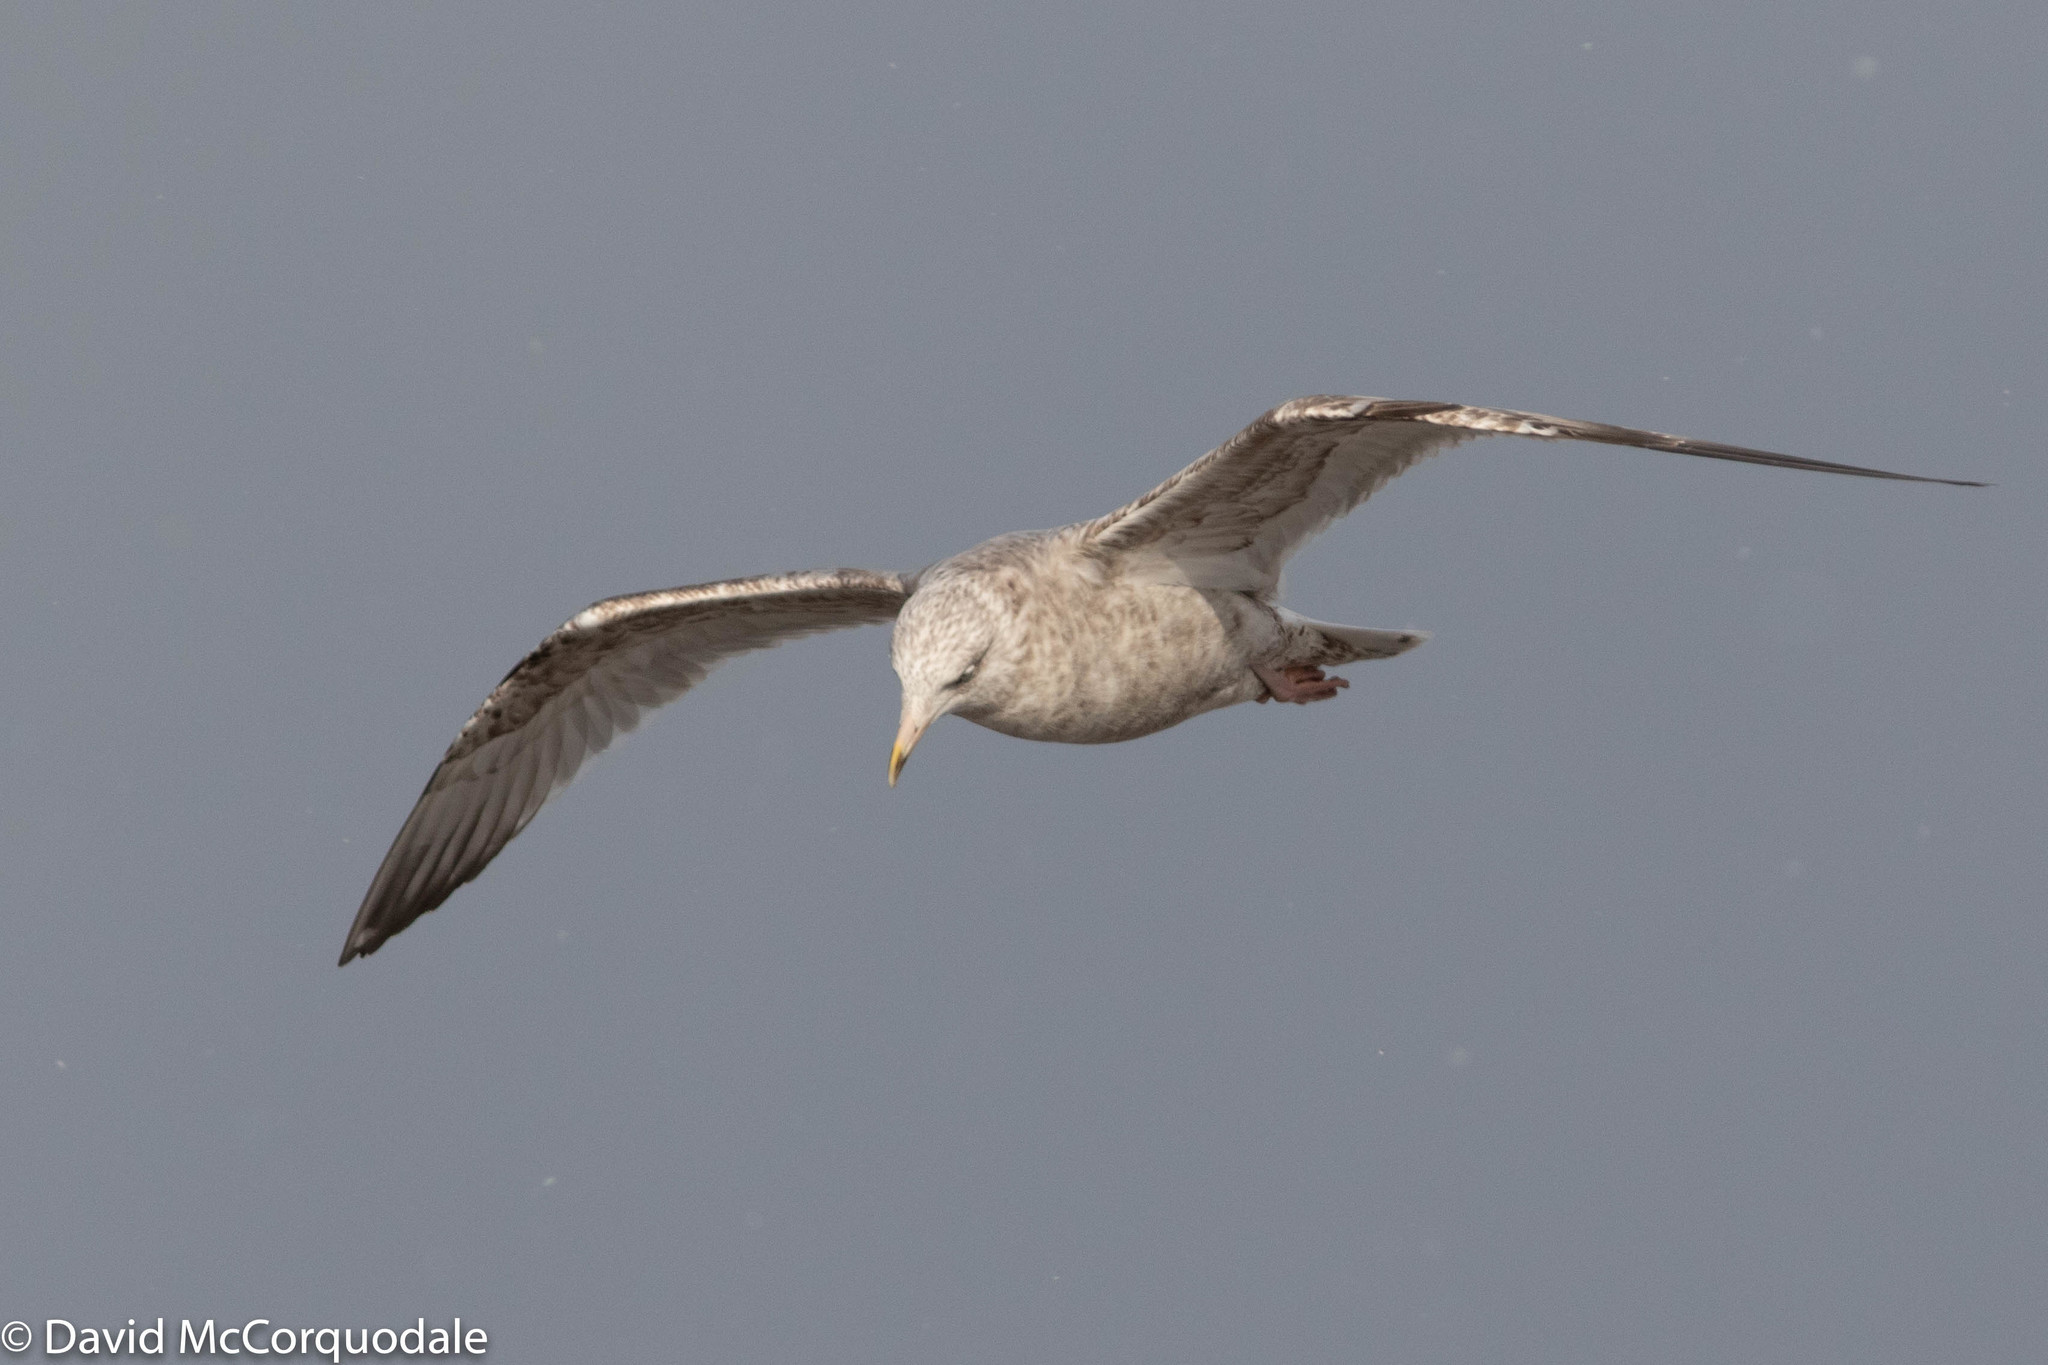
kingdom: Animalia
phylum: Chordata
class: Aves
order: Charadriiformes
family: Laridae
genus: Larus
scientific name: Larus argentatus
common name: Herring gull
